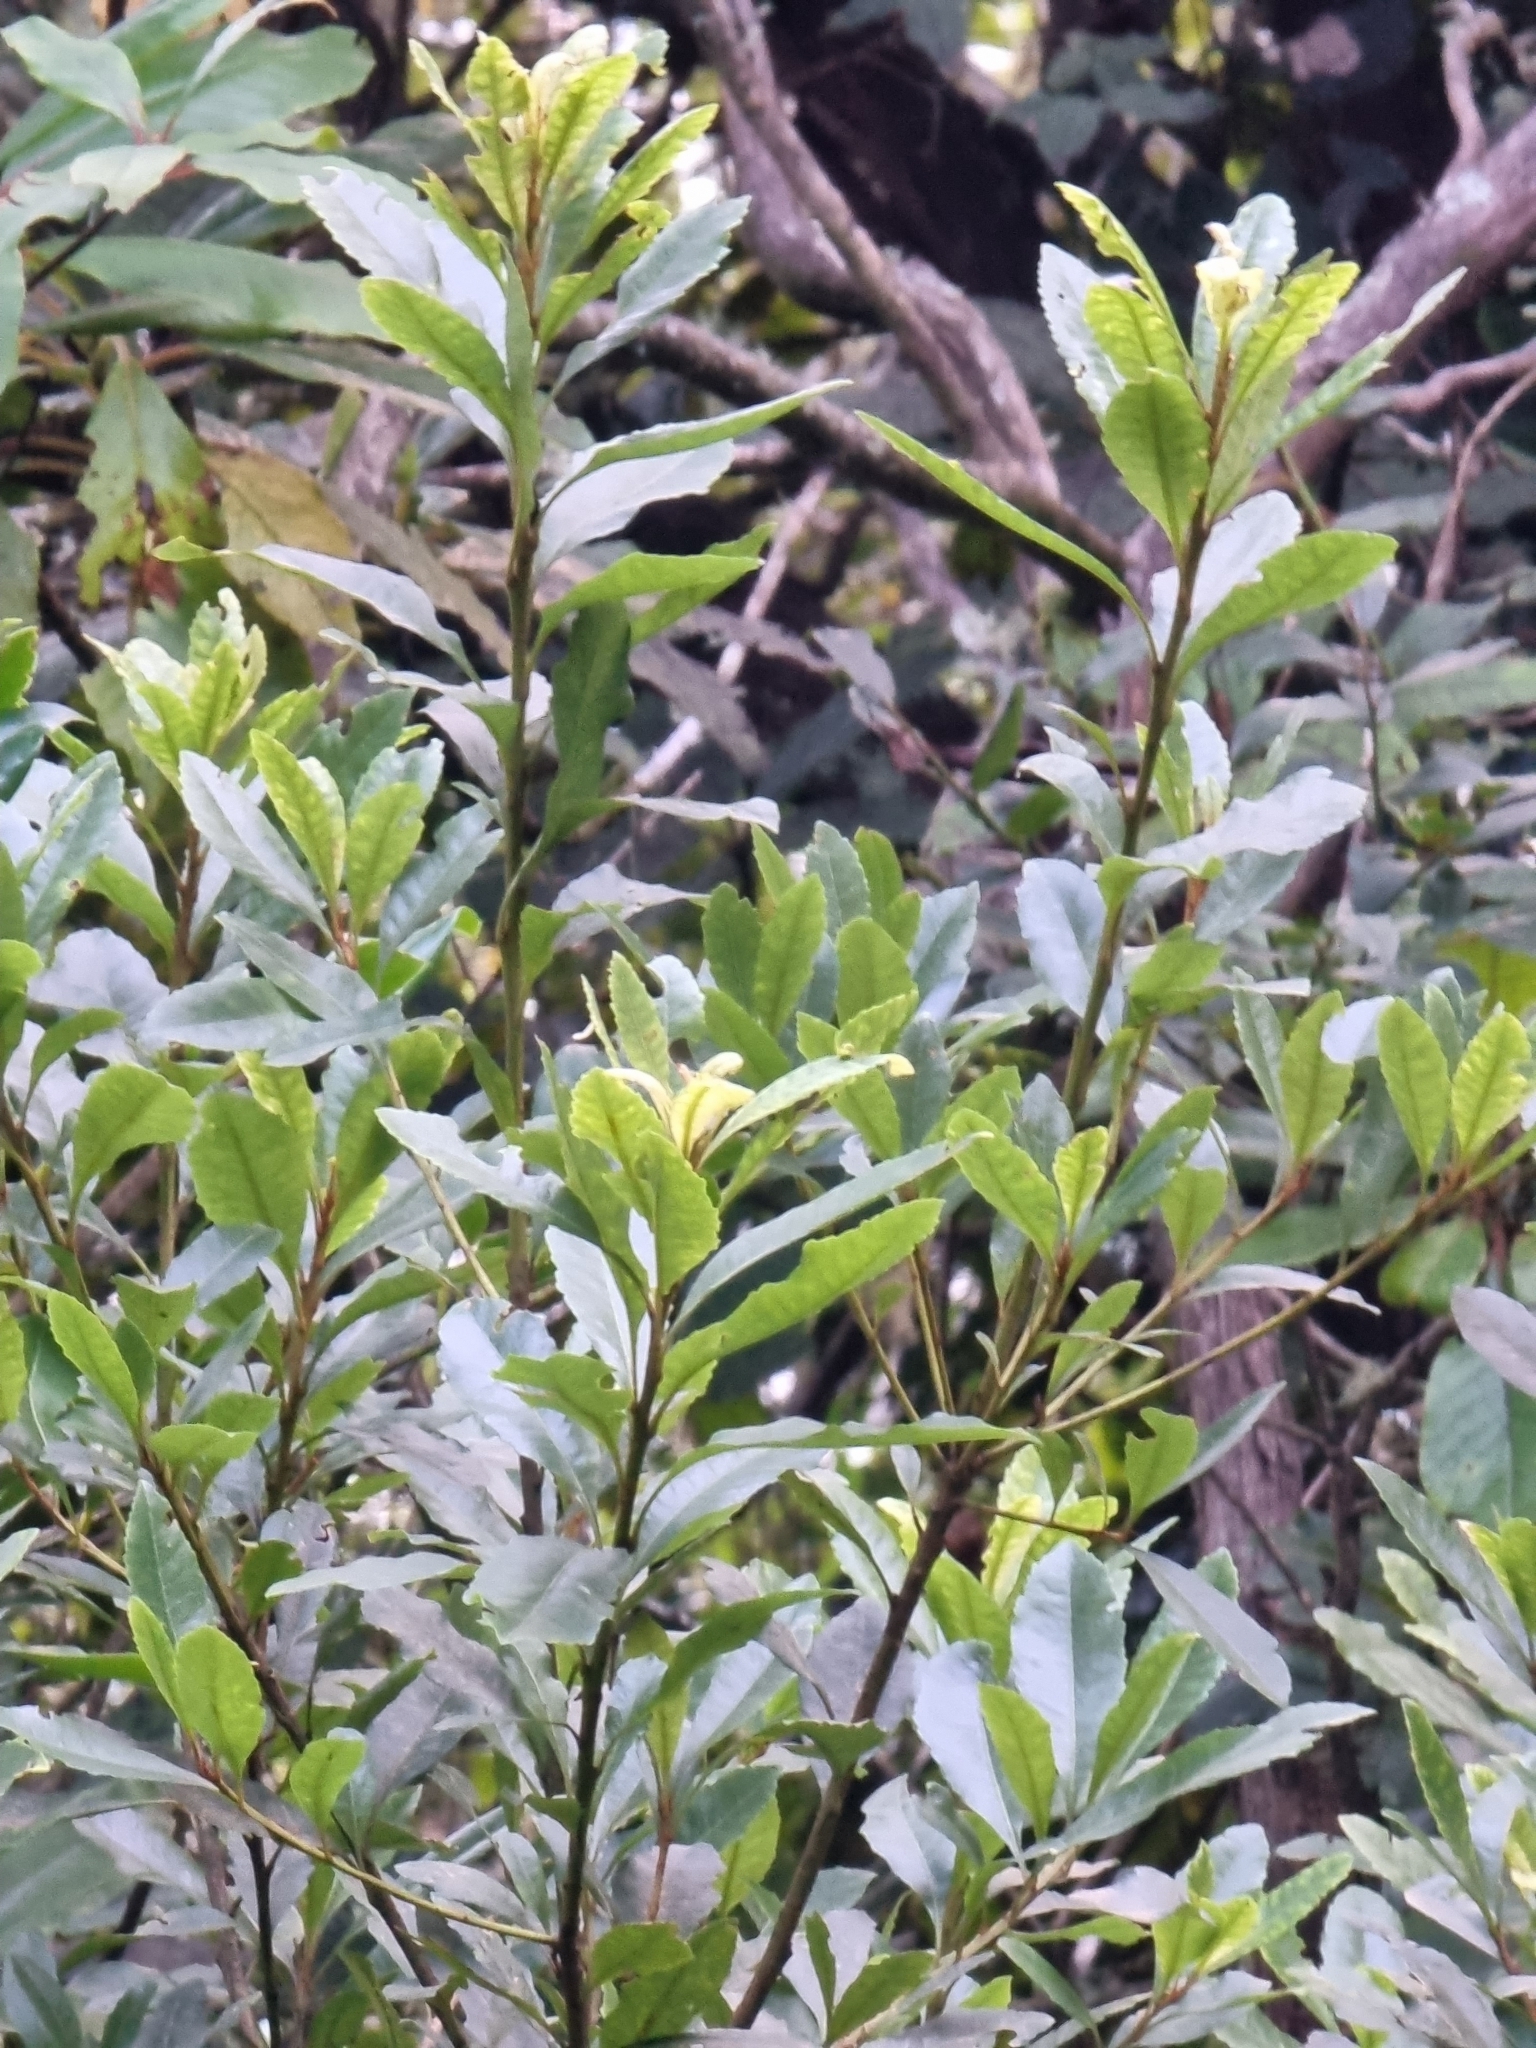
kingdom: Plantae
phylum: Tracheophyta
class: Magnoliopsida
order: Fagales
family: Myricaceae
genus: Morella
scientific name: Morella faya
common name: Firetree
